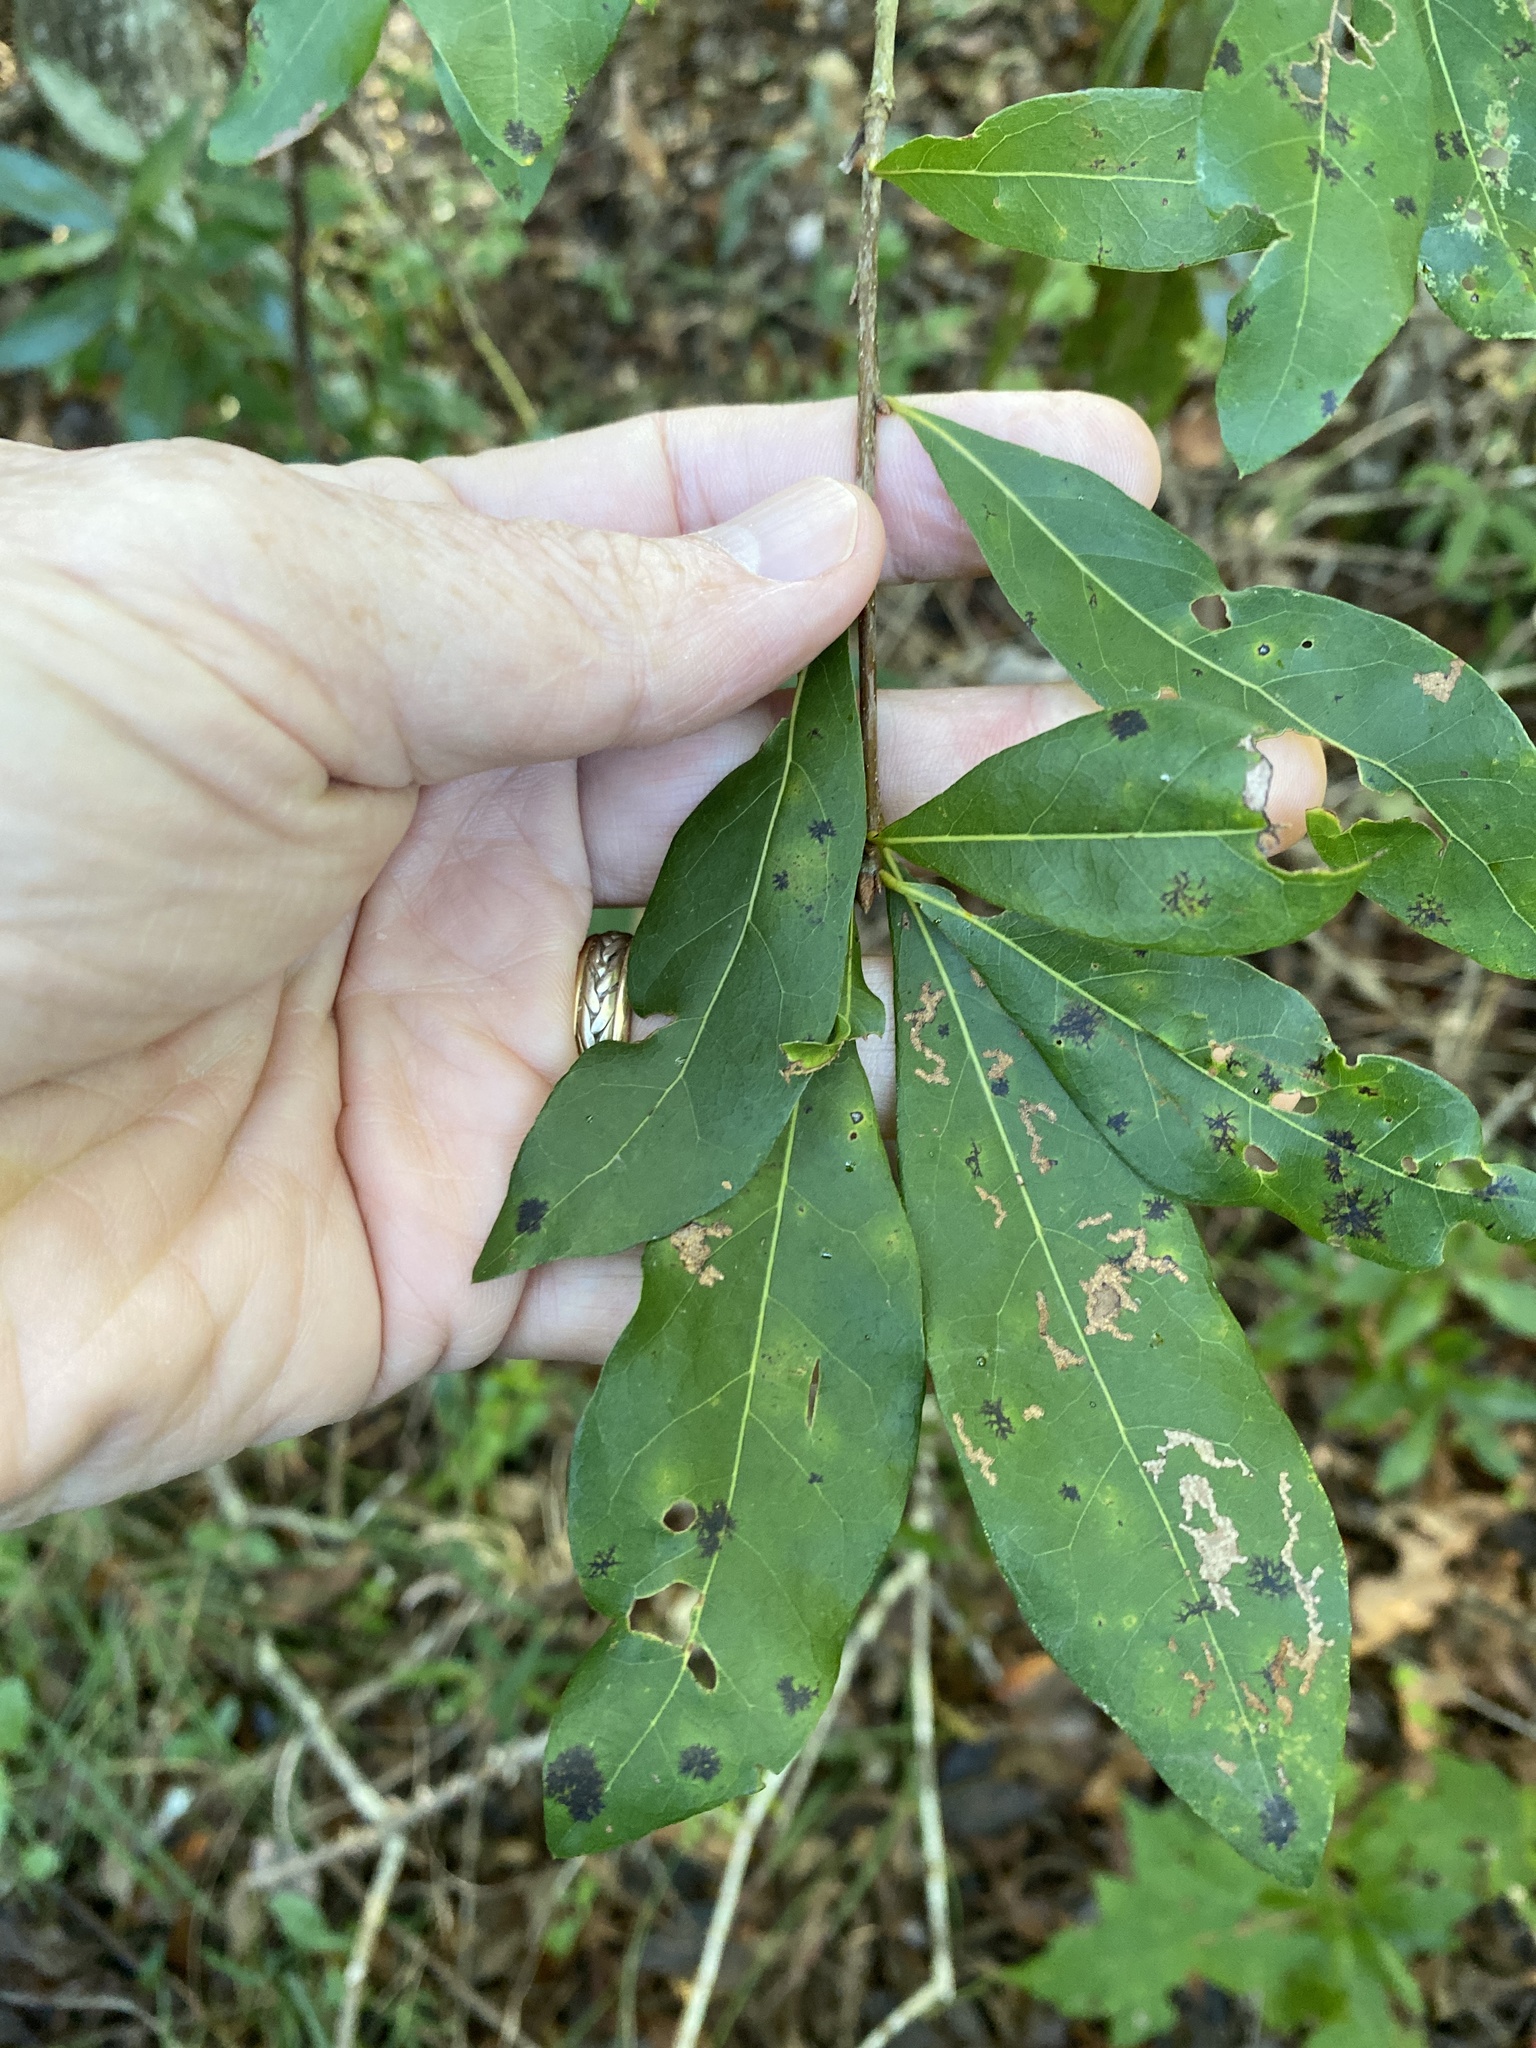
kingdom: Plantae
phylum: Tracheophyta
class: Magnoliopsida
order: Fagales
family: Fagaceae
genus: Quercus
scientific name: Quercus laurifolia
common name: Swamp laurel oak
